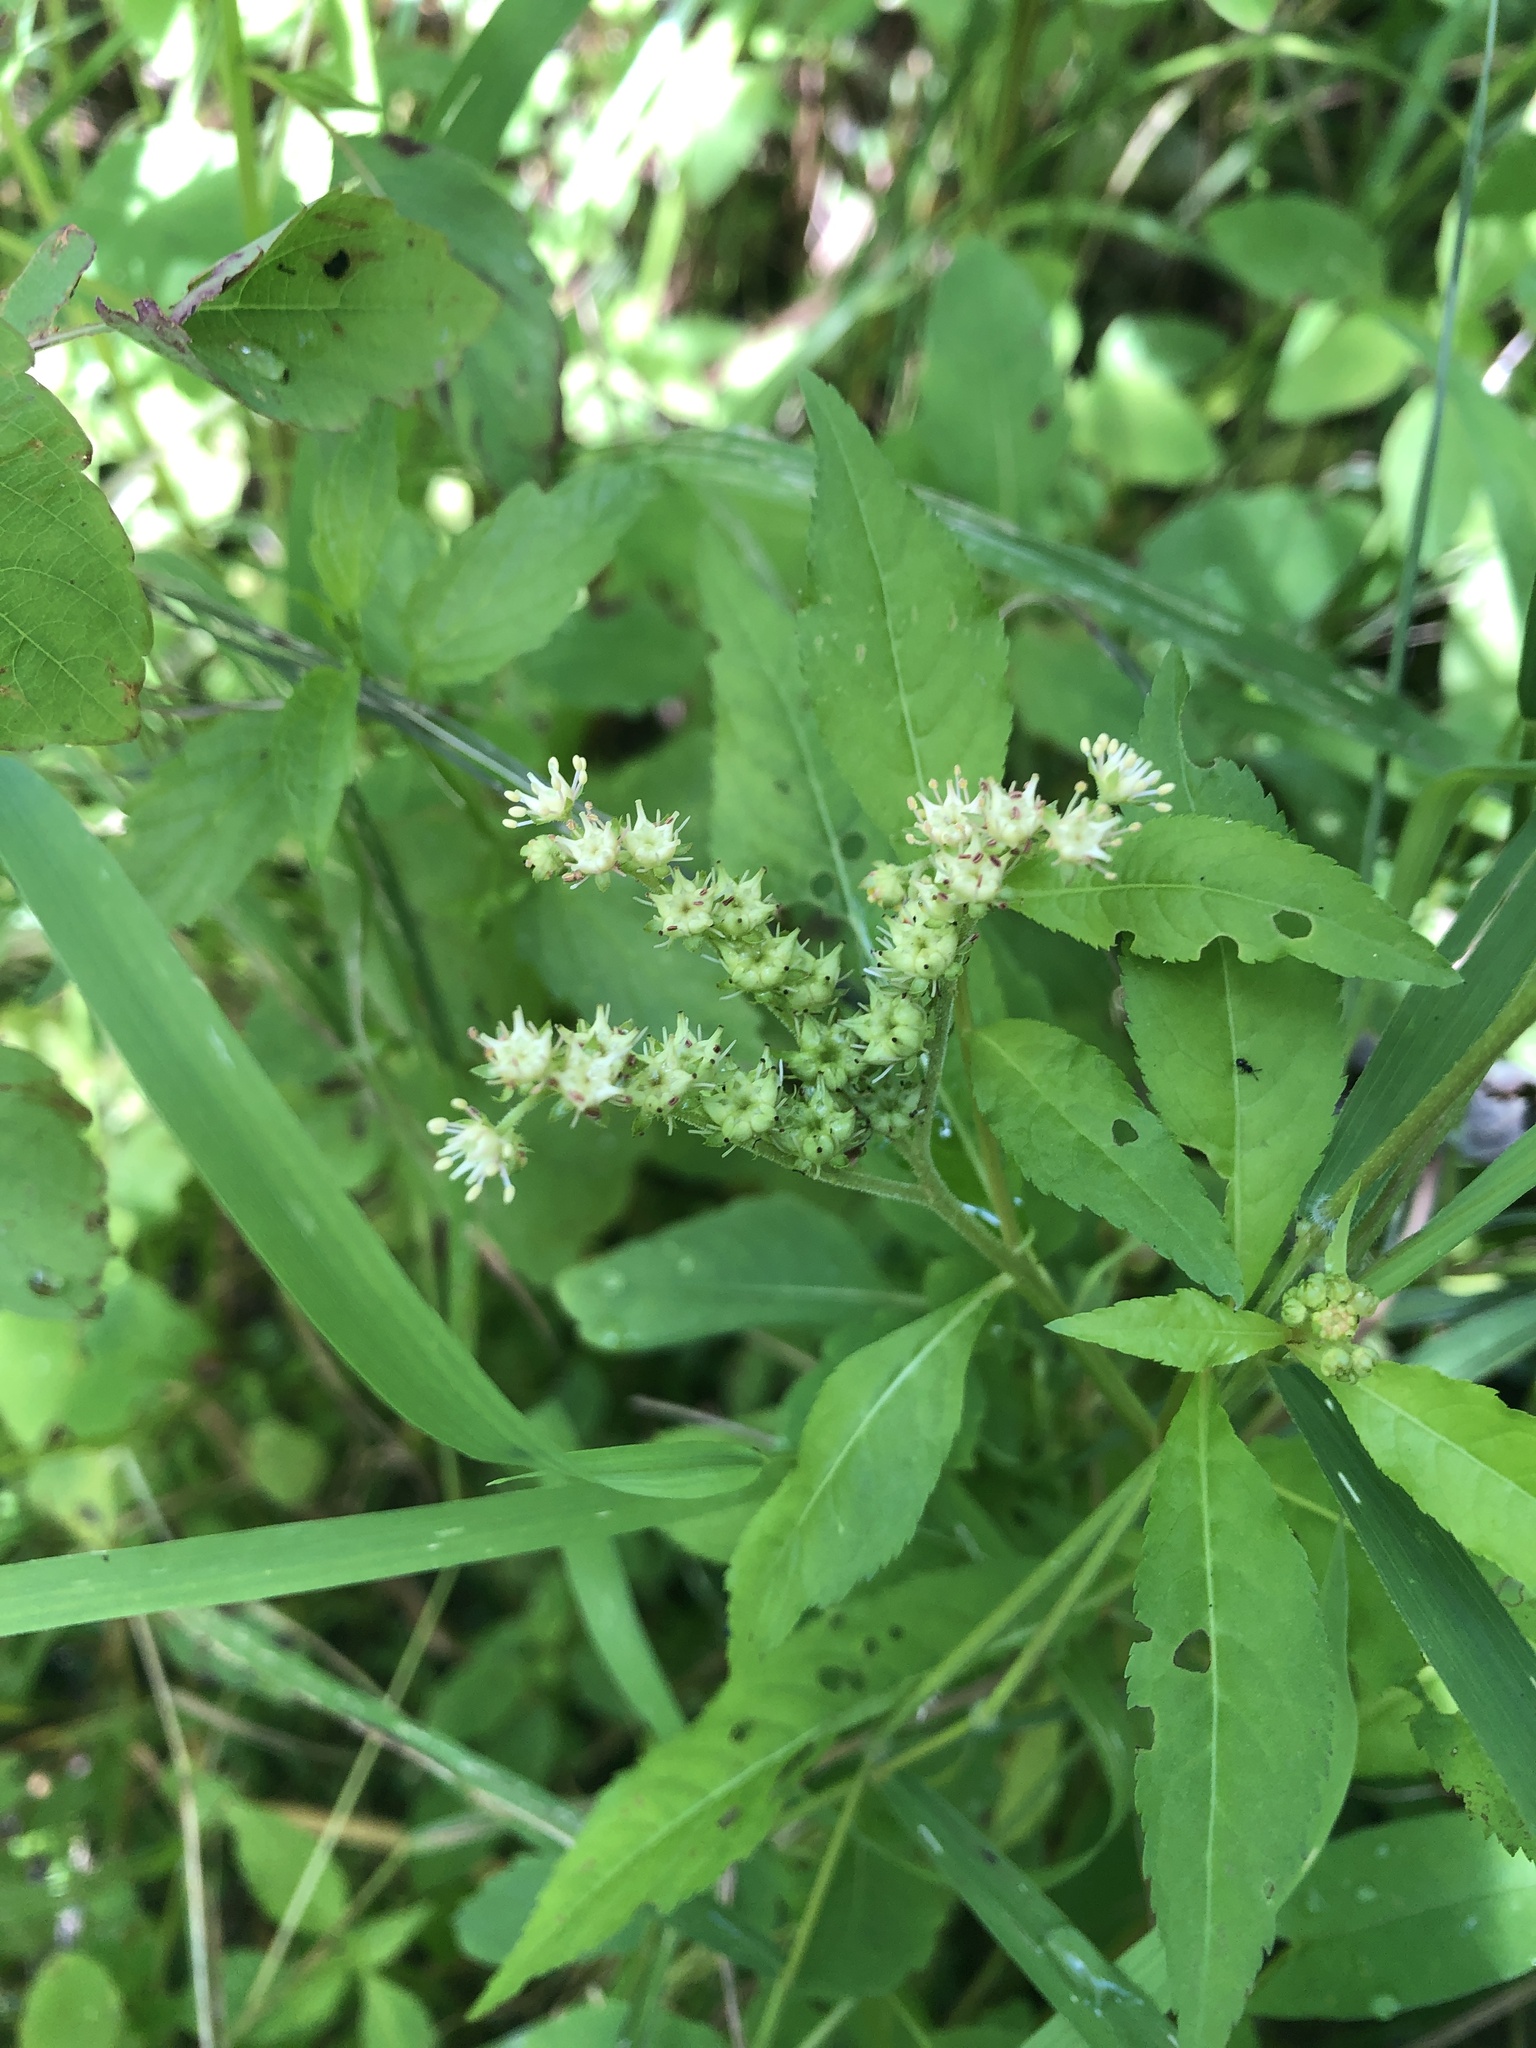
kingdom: Plantae
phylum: Tracheophyta
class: Magnoliopsida
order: Saxifragales
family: Penthoraceae
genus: Penthorum
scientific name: Penthorum sedoides
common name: Ditch stonecrop
